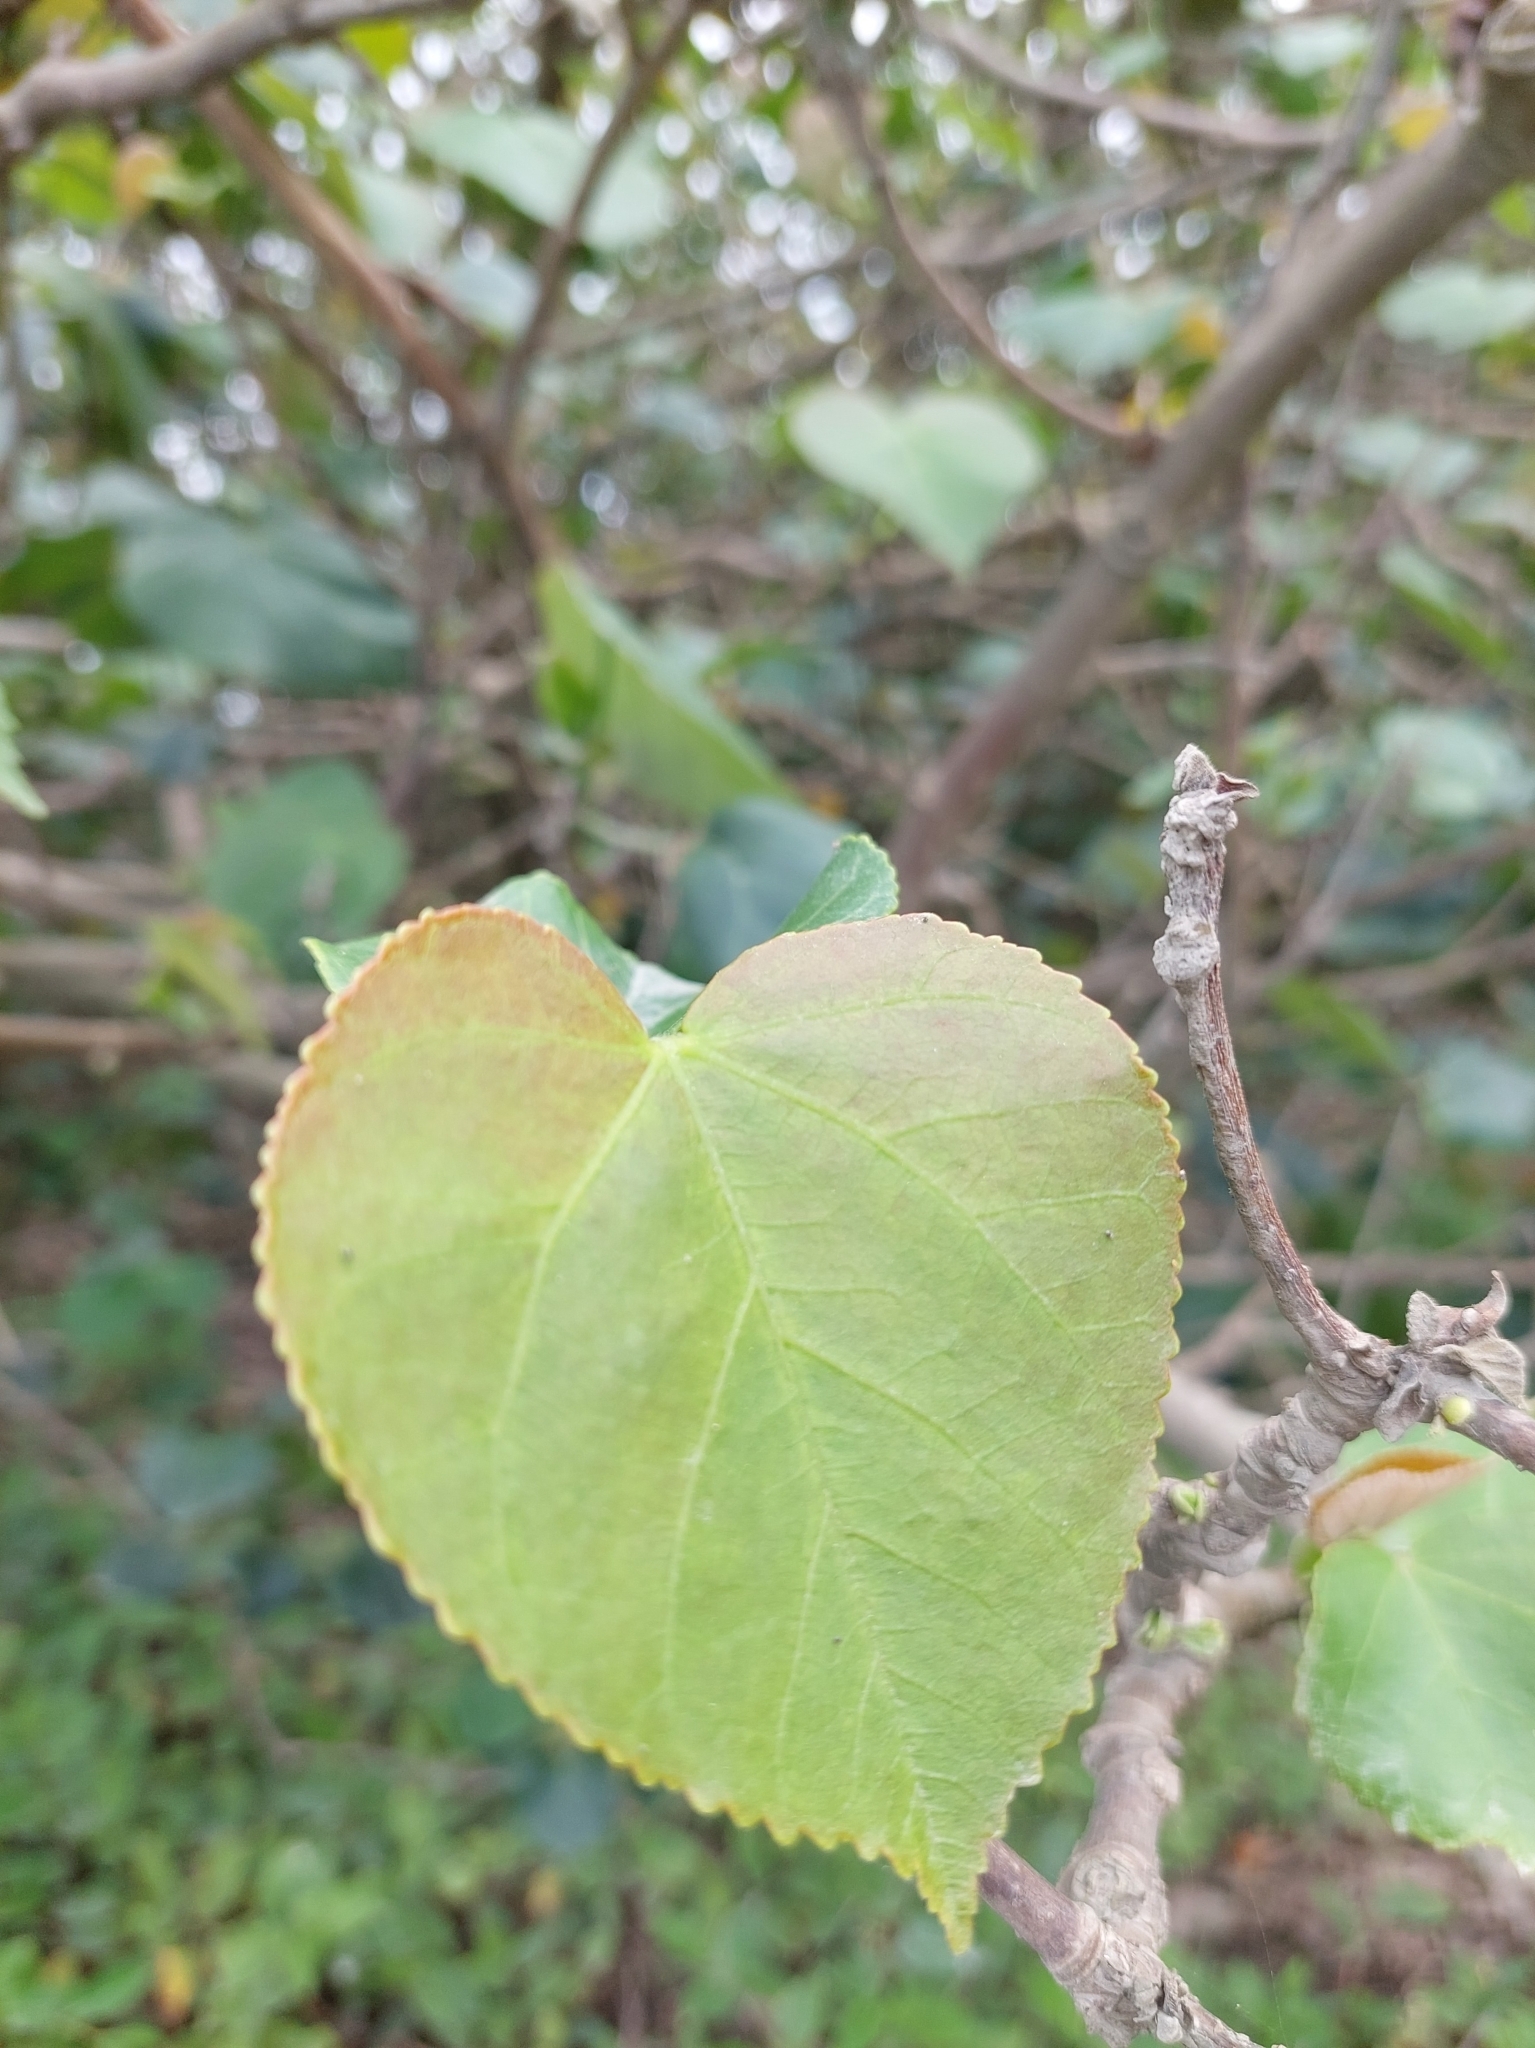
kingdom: Plantae
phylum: Tracheophyta
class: Magnoliopsida
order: Malvales
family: Malvaceae
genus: Talipariti
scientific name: Talipariti tiliaceum
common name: Sea hibiscus
